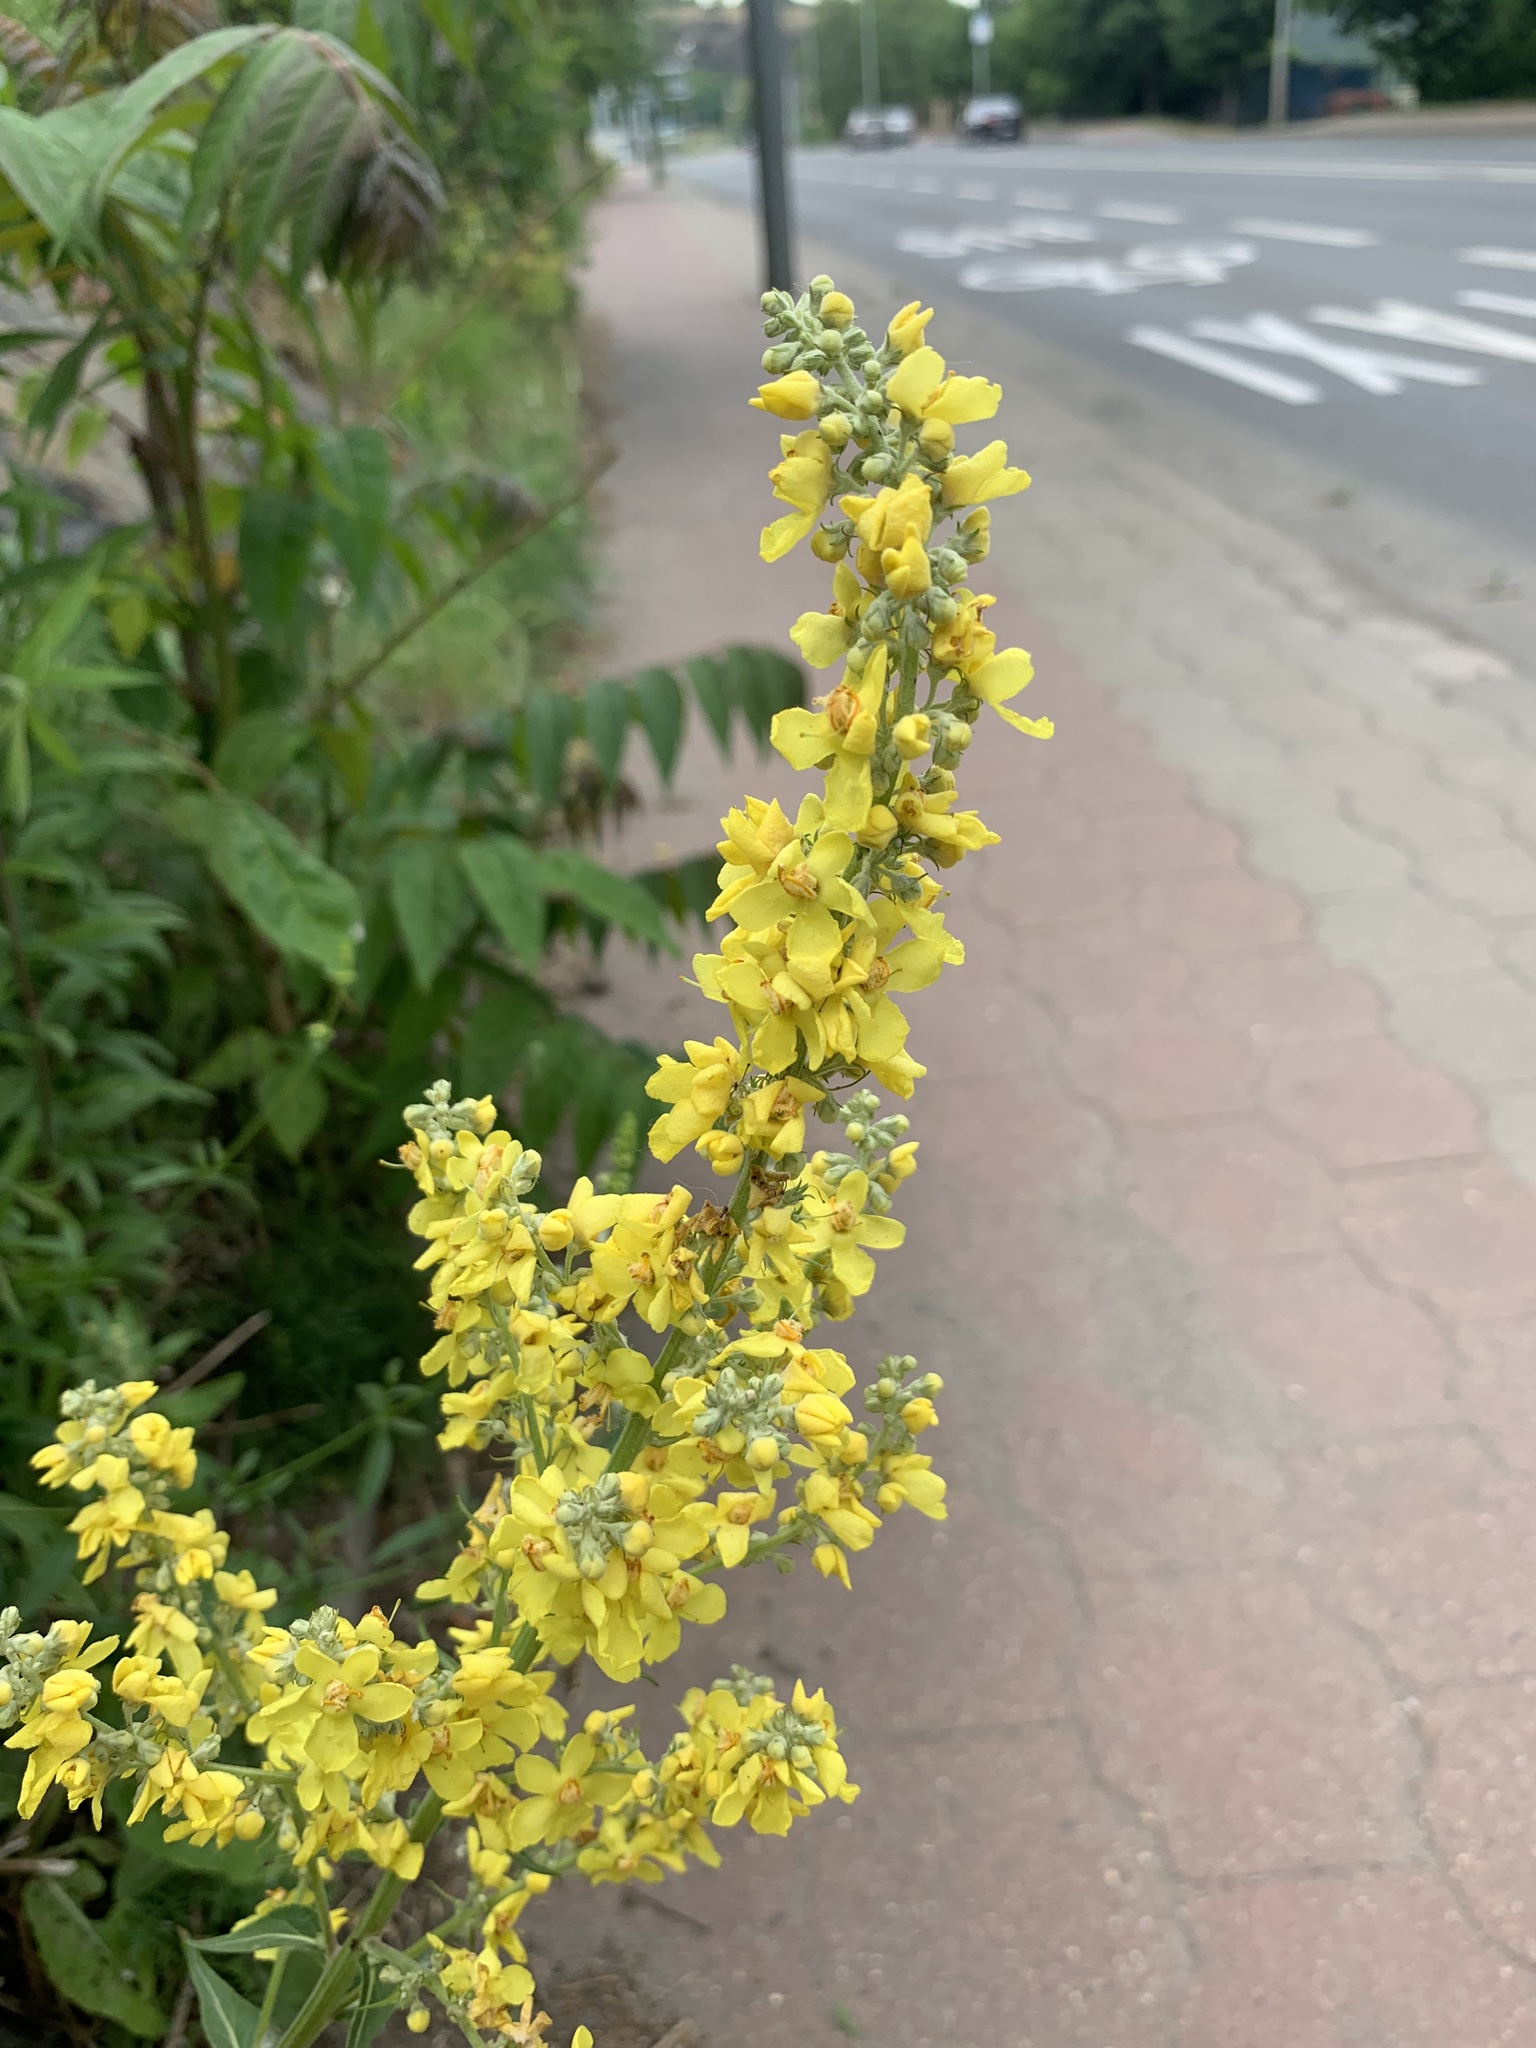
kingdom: Plantae
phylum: Tracheophyta
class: Magnoliopsida
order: Lamiales
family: Scrophulariaceae
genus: Verbascum
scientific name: Verbascum lychnitis
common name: White mullein
